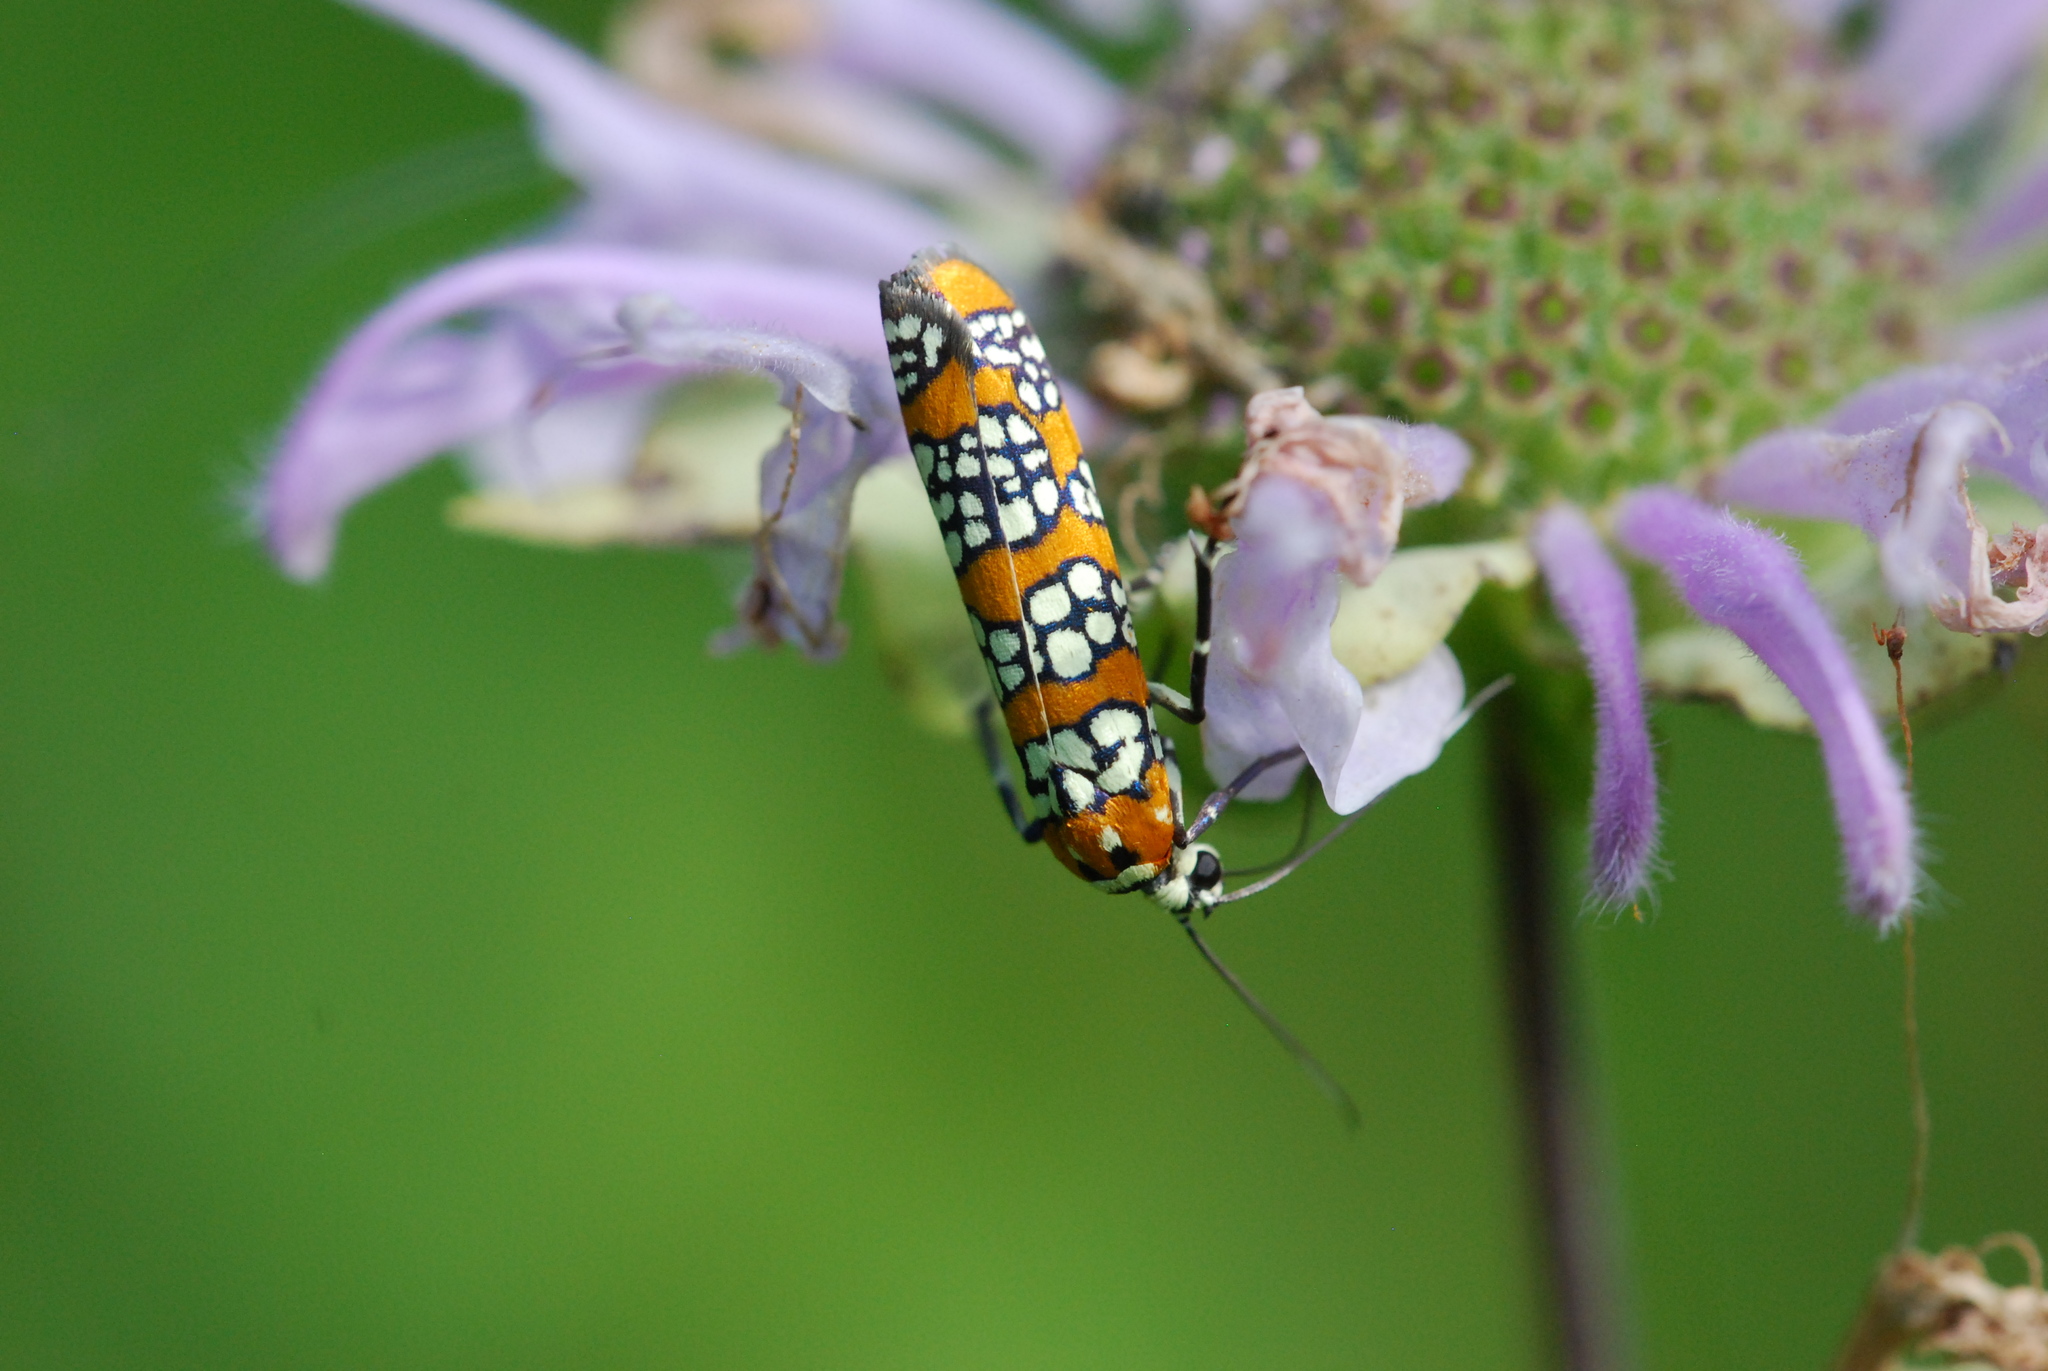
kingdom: Animalia
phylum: Arthropoda
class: Insecta
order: Lepidoptera
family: Attevidae
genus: Atteva
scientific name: Atteva punctella
